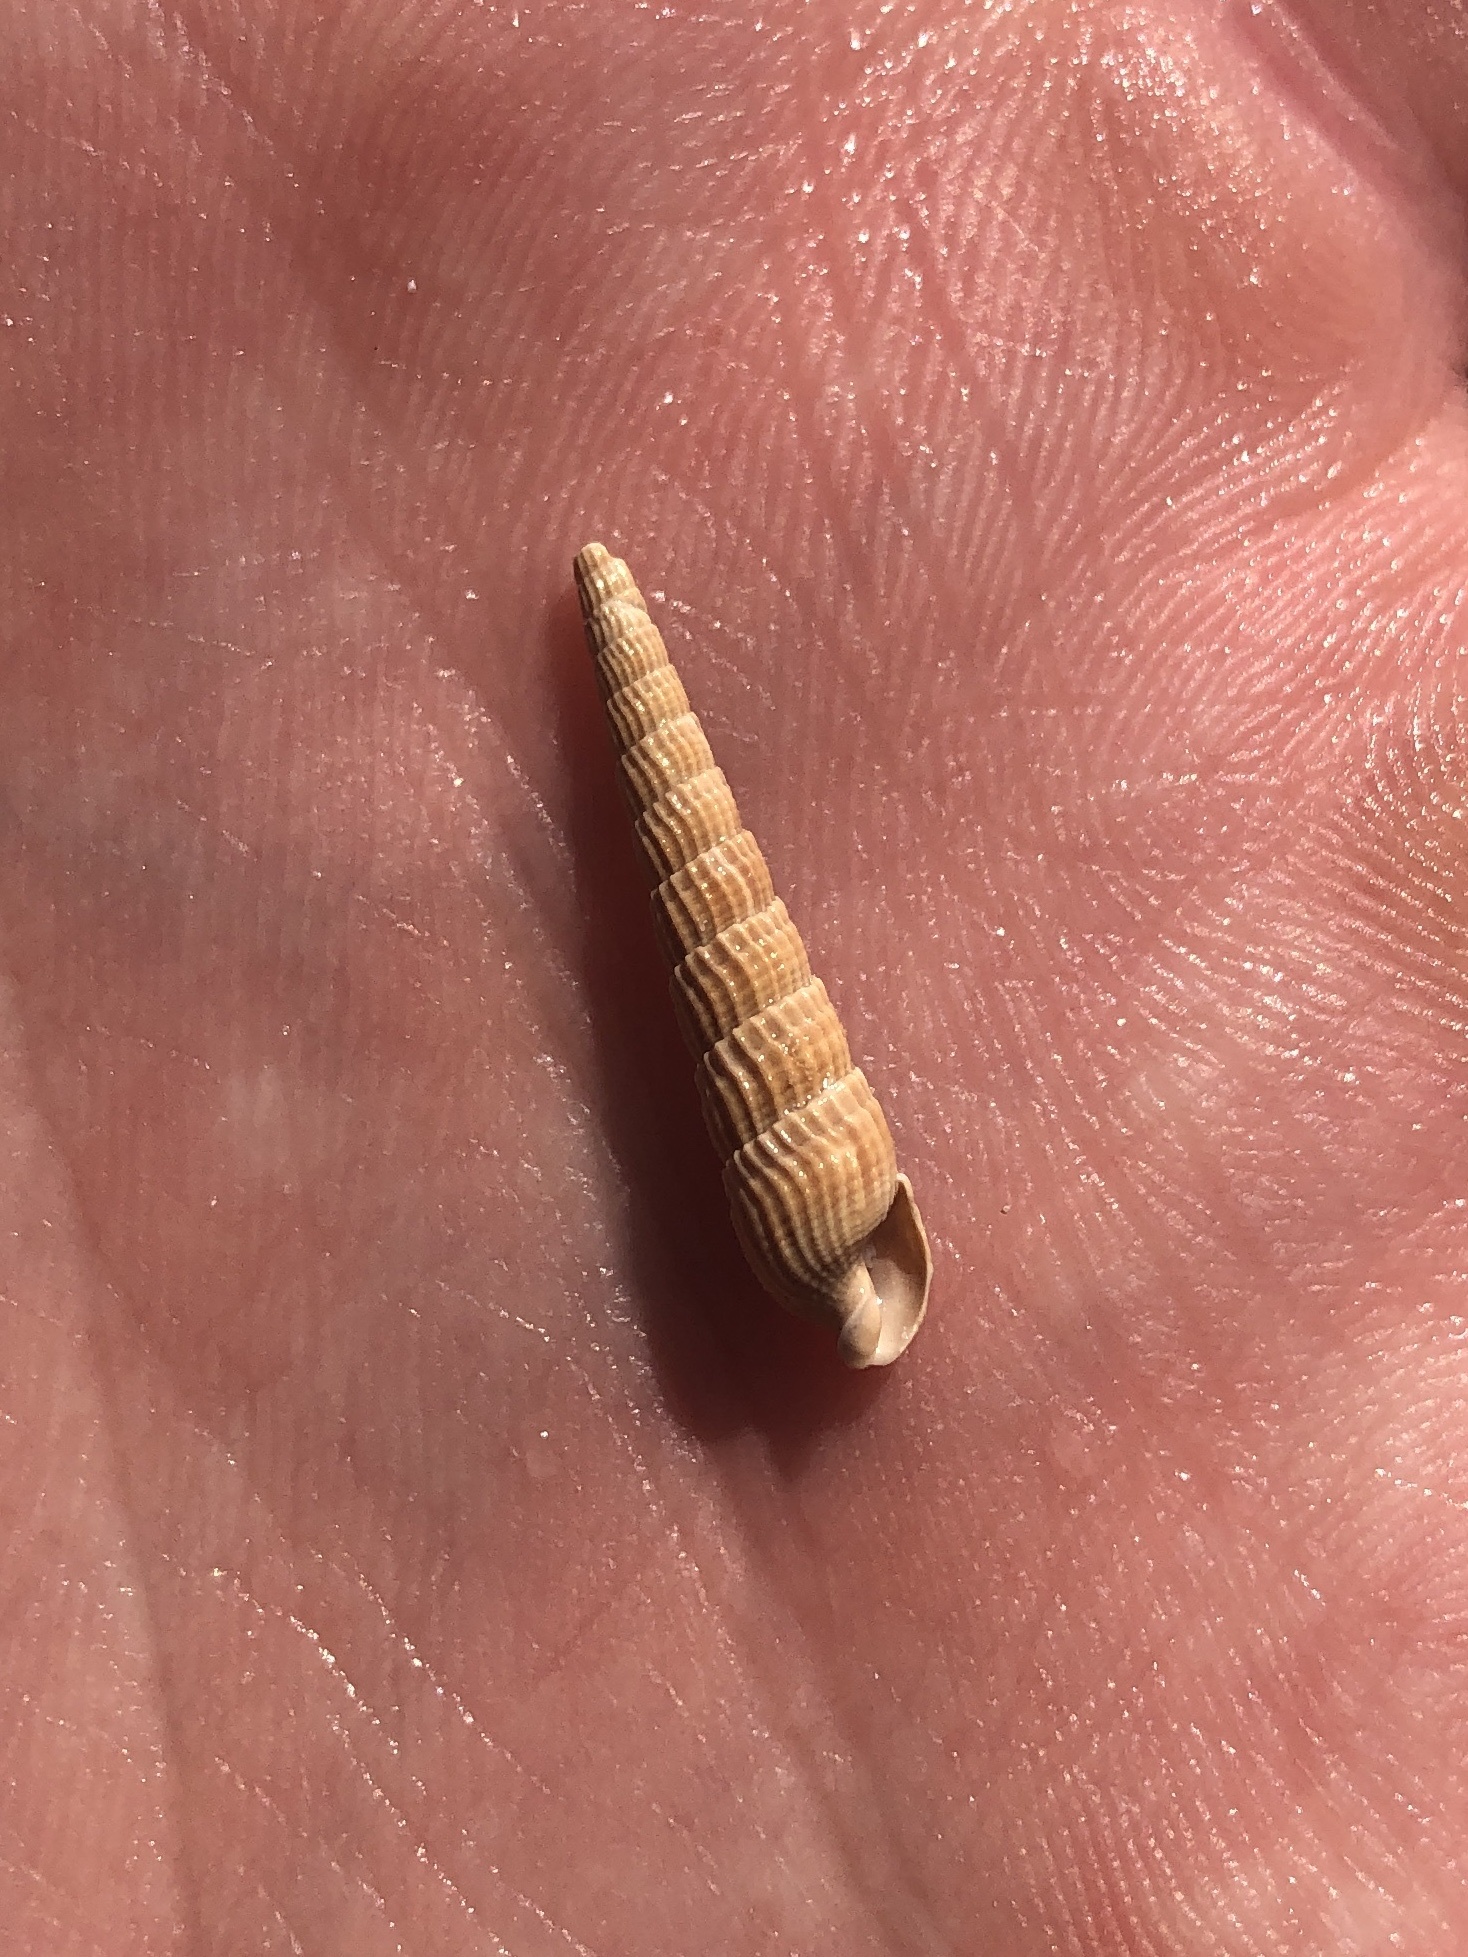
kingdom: Animalia
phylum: Mollusca
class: Gastropoda
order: Neogastropoda
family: Terebridae
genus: Neoterebra
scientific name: Neoterebra protexta
